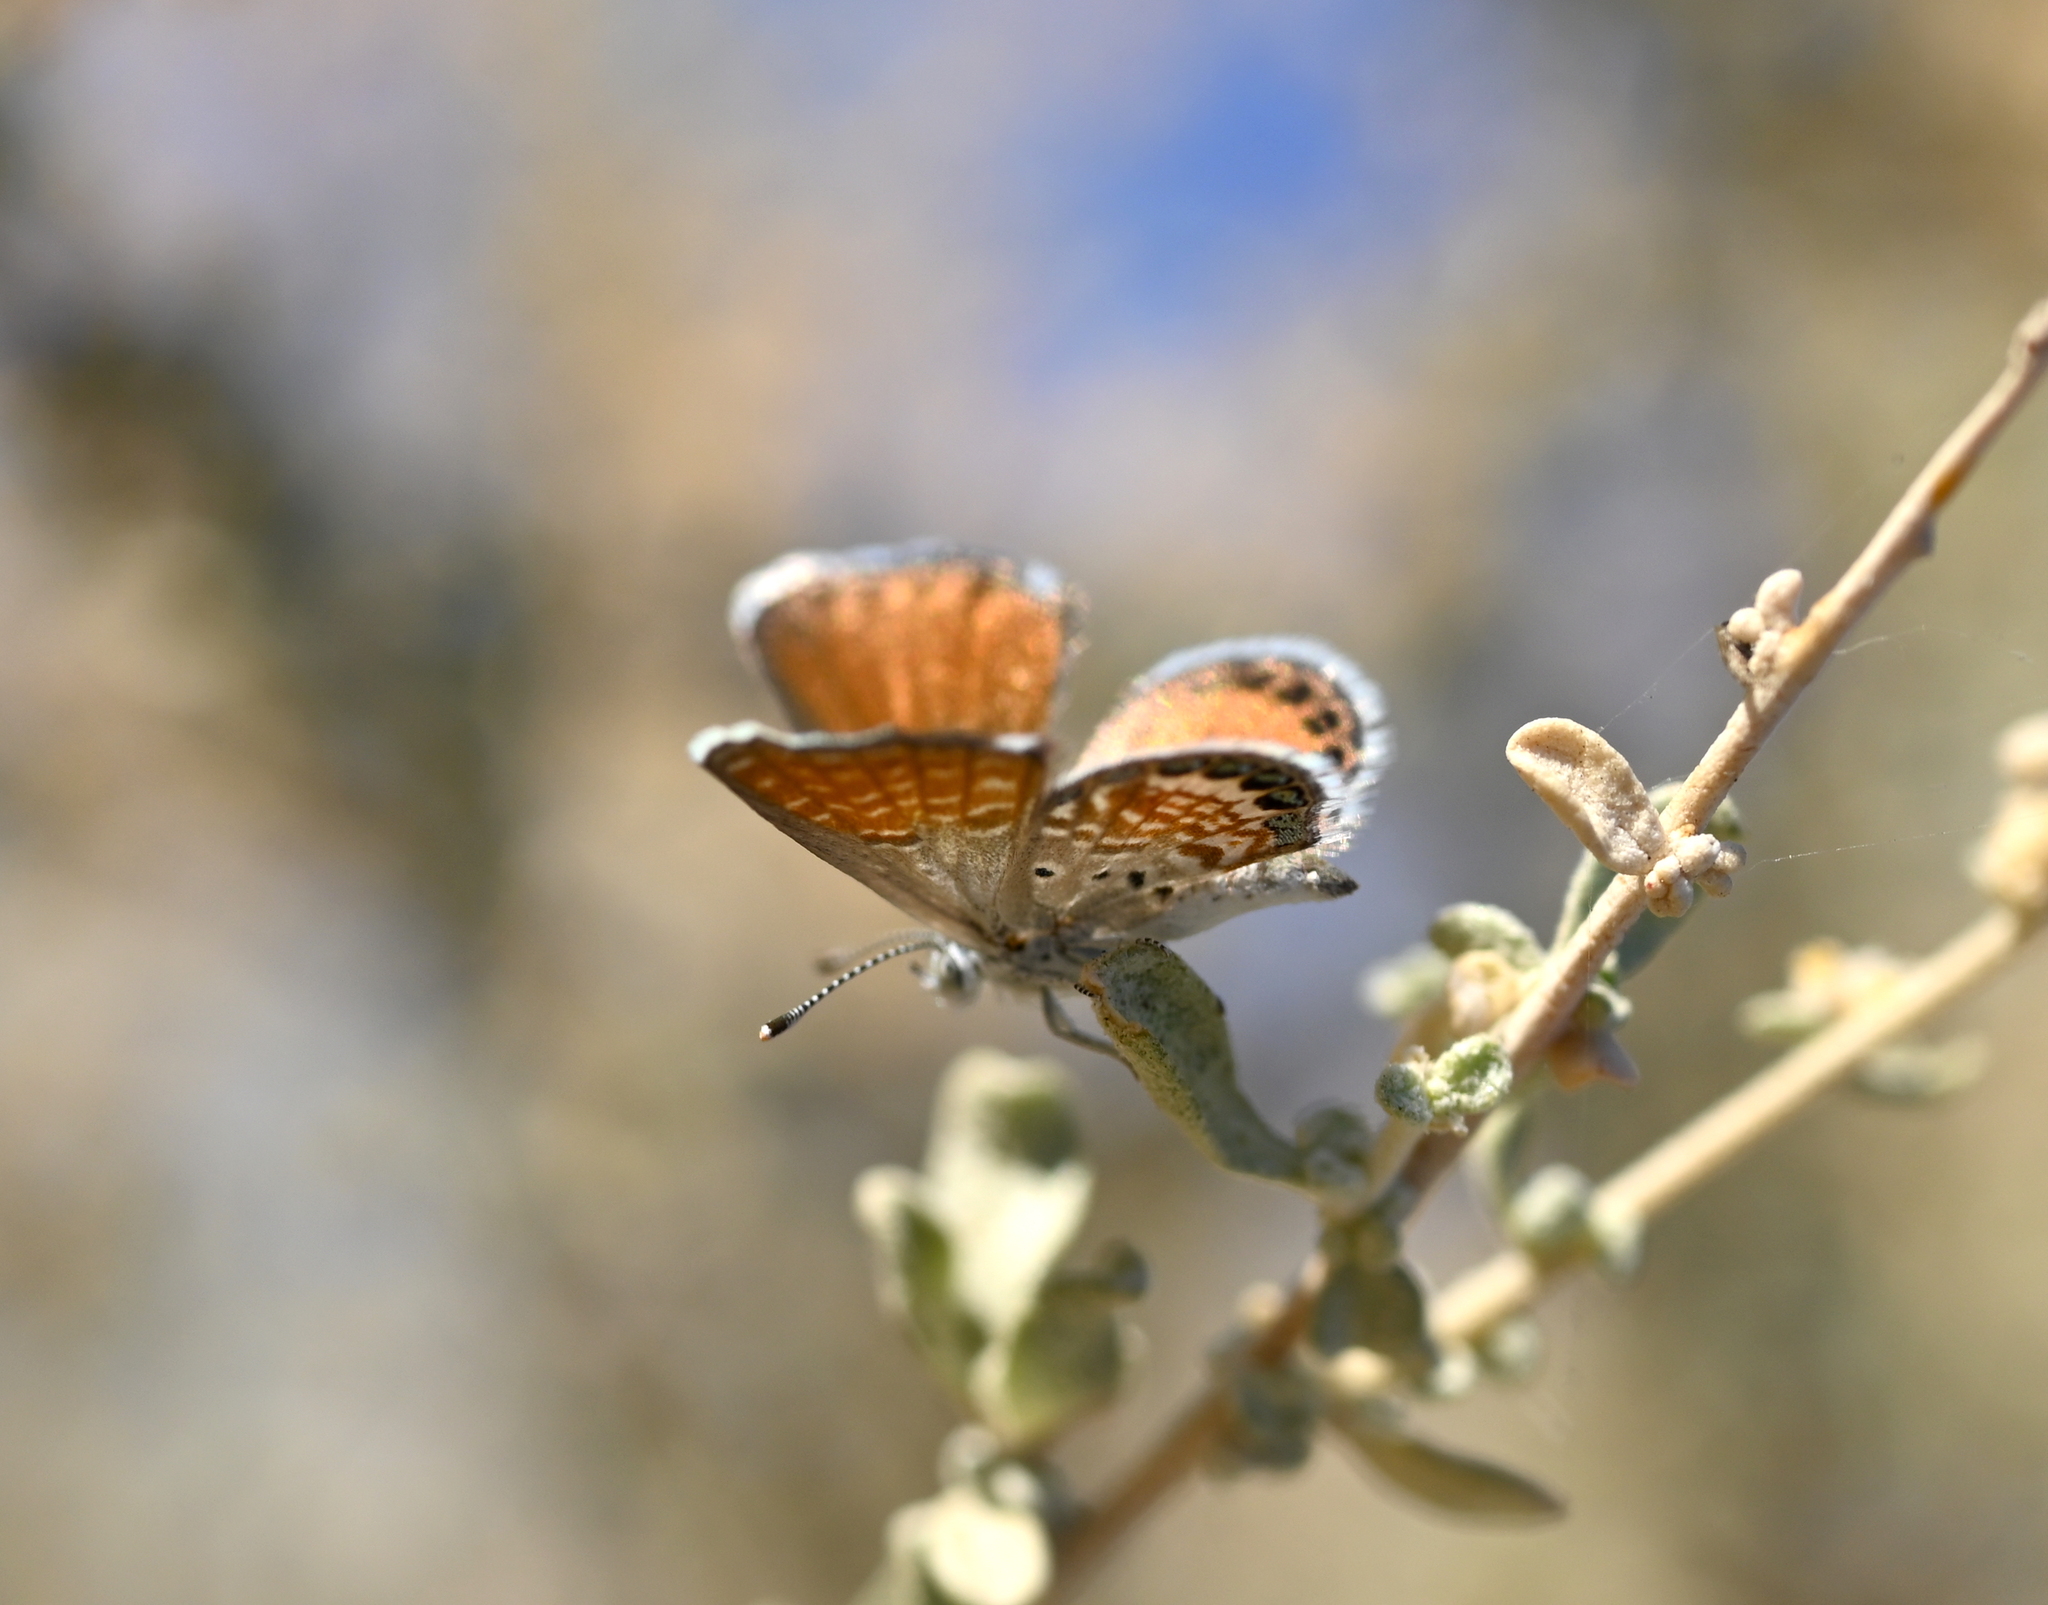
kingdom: Animalia
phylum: Arthropoda
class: Insecta
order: Lepidoptera
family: Lycaenidae
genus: Brephidium
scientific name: Brephidium exilis
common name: Pygmy blue
